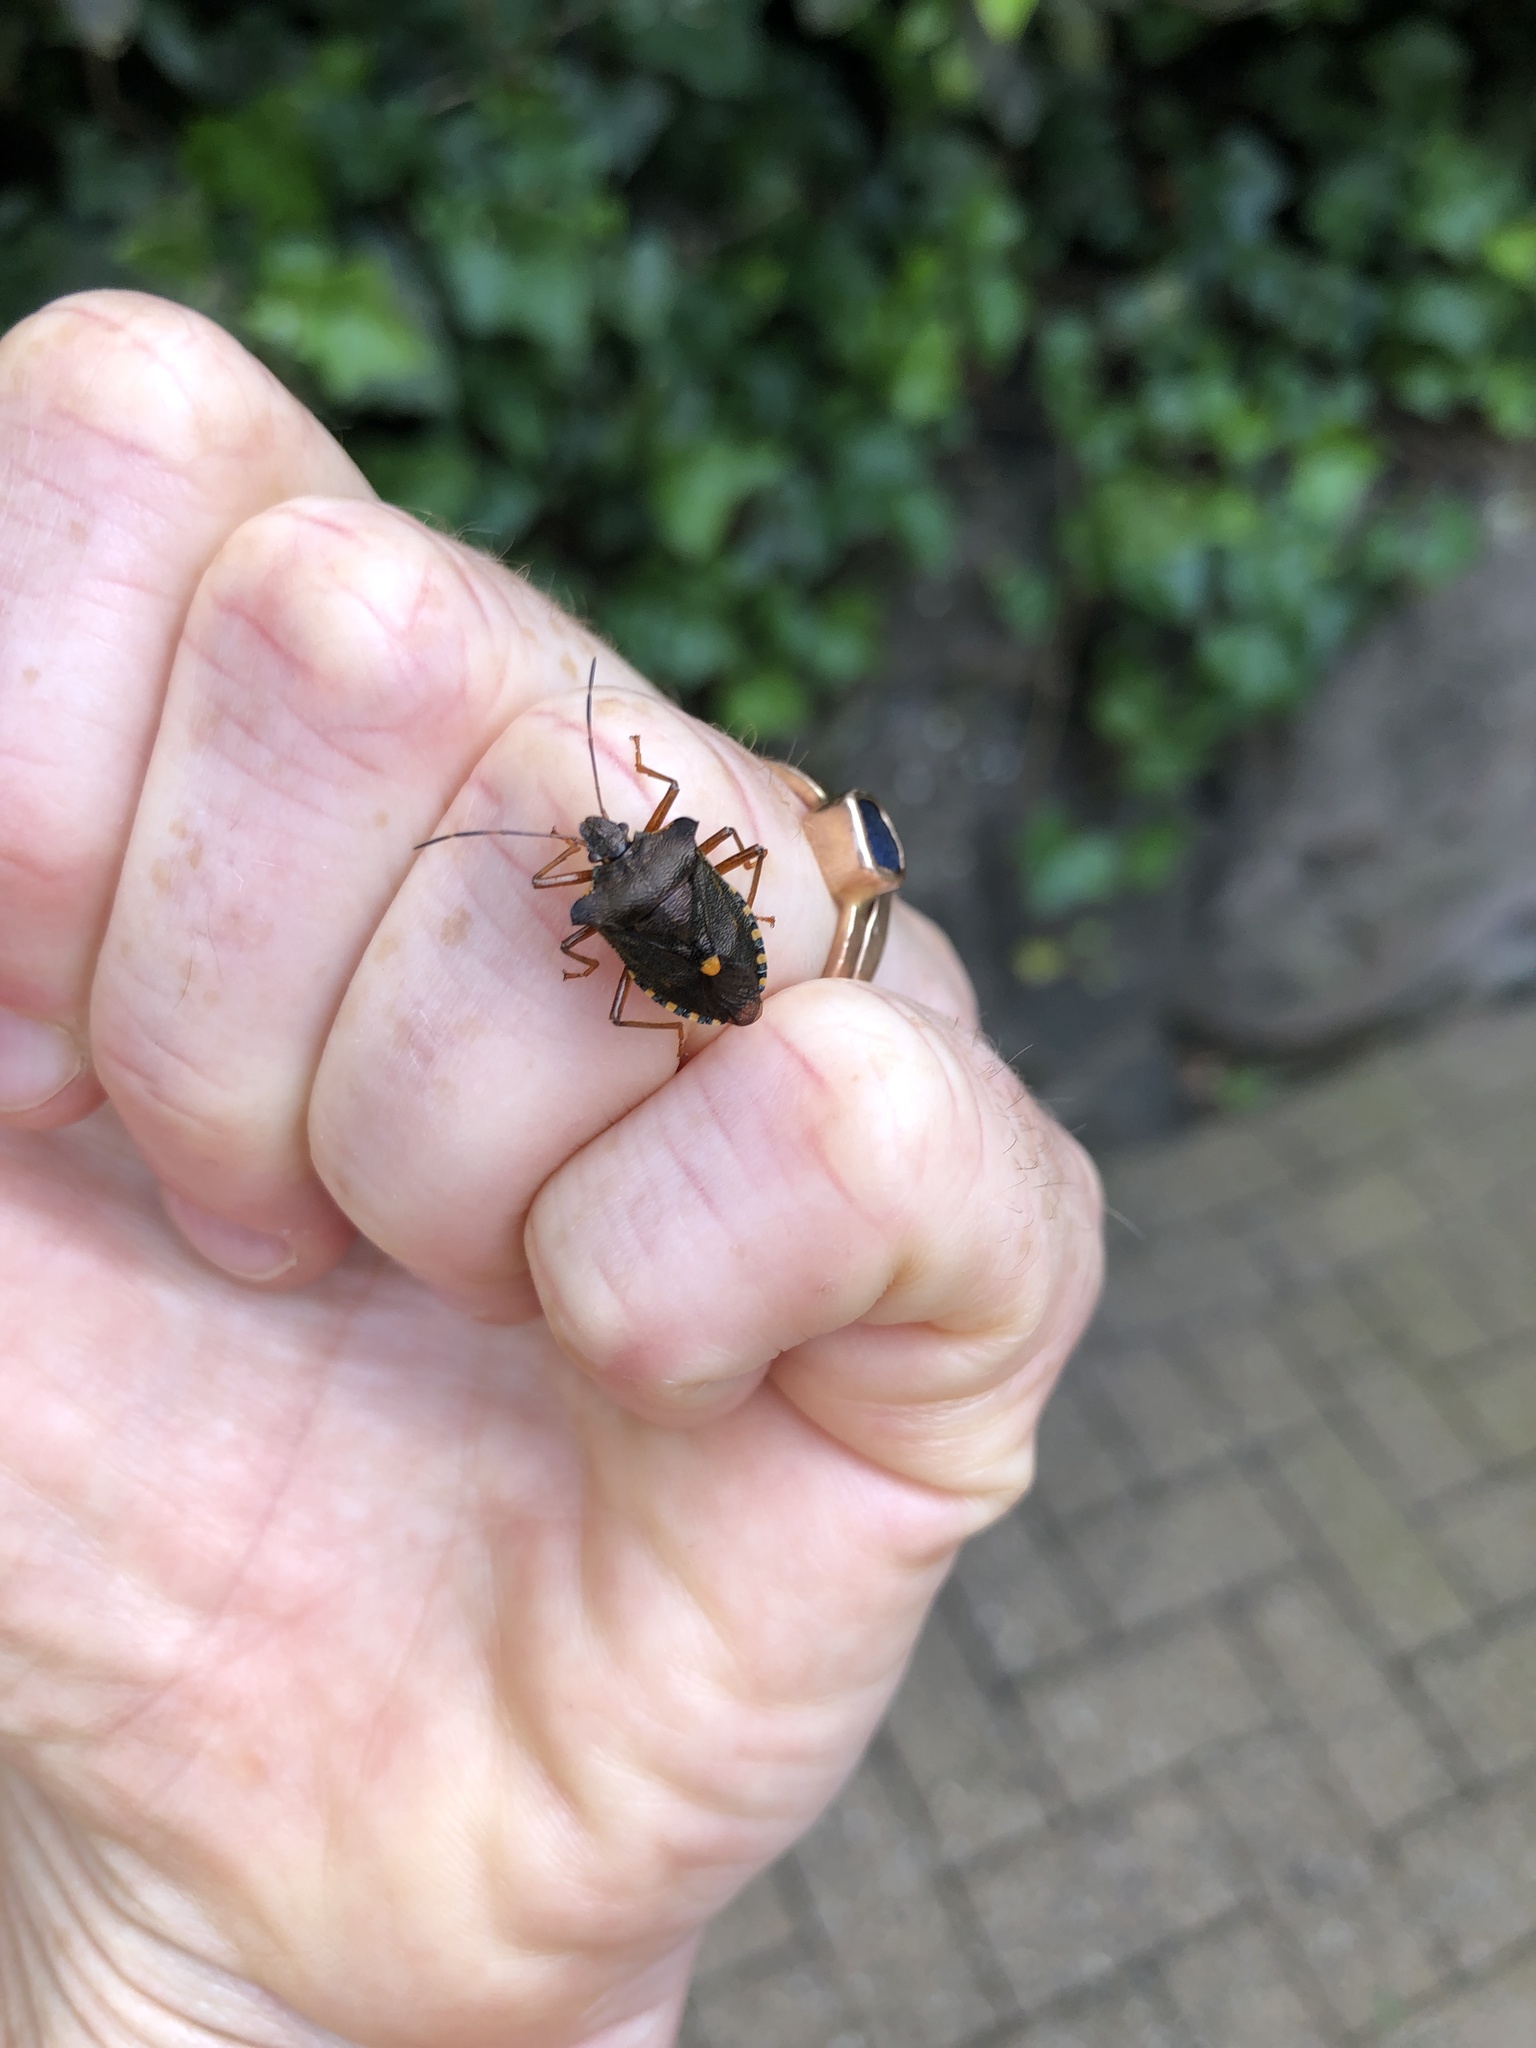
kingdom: Animalia
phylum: Arthropoda
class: Insecta
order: Hemiptera
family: Pentatomidae
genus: Pentatoma
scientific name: Pentatoma rufipes
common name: Forest bug
